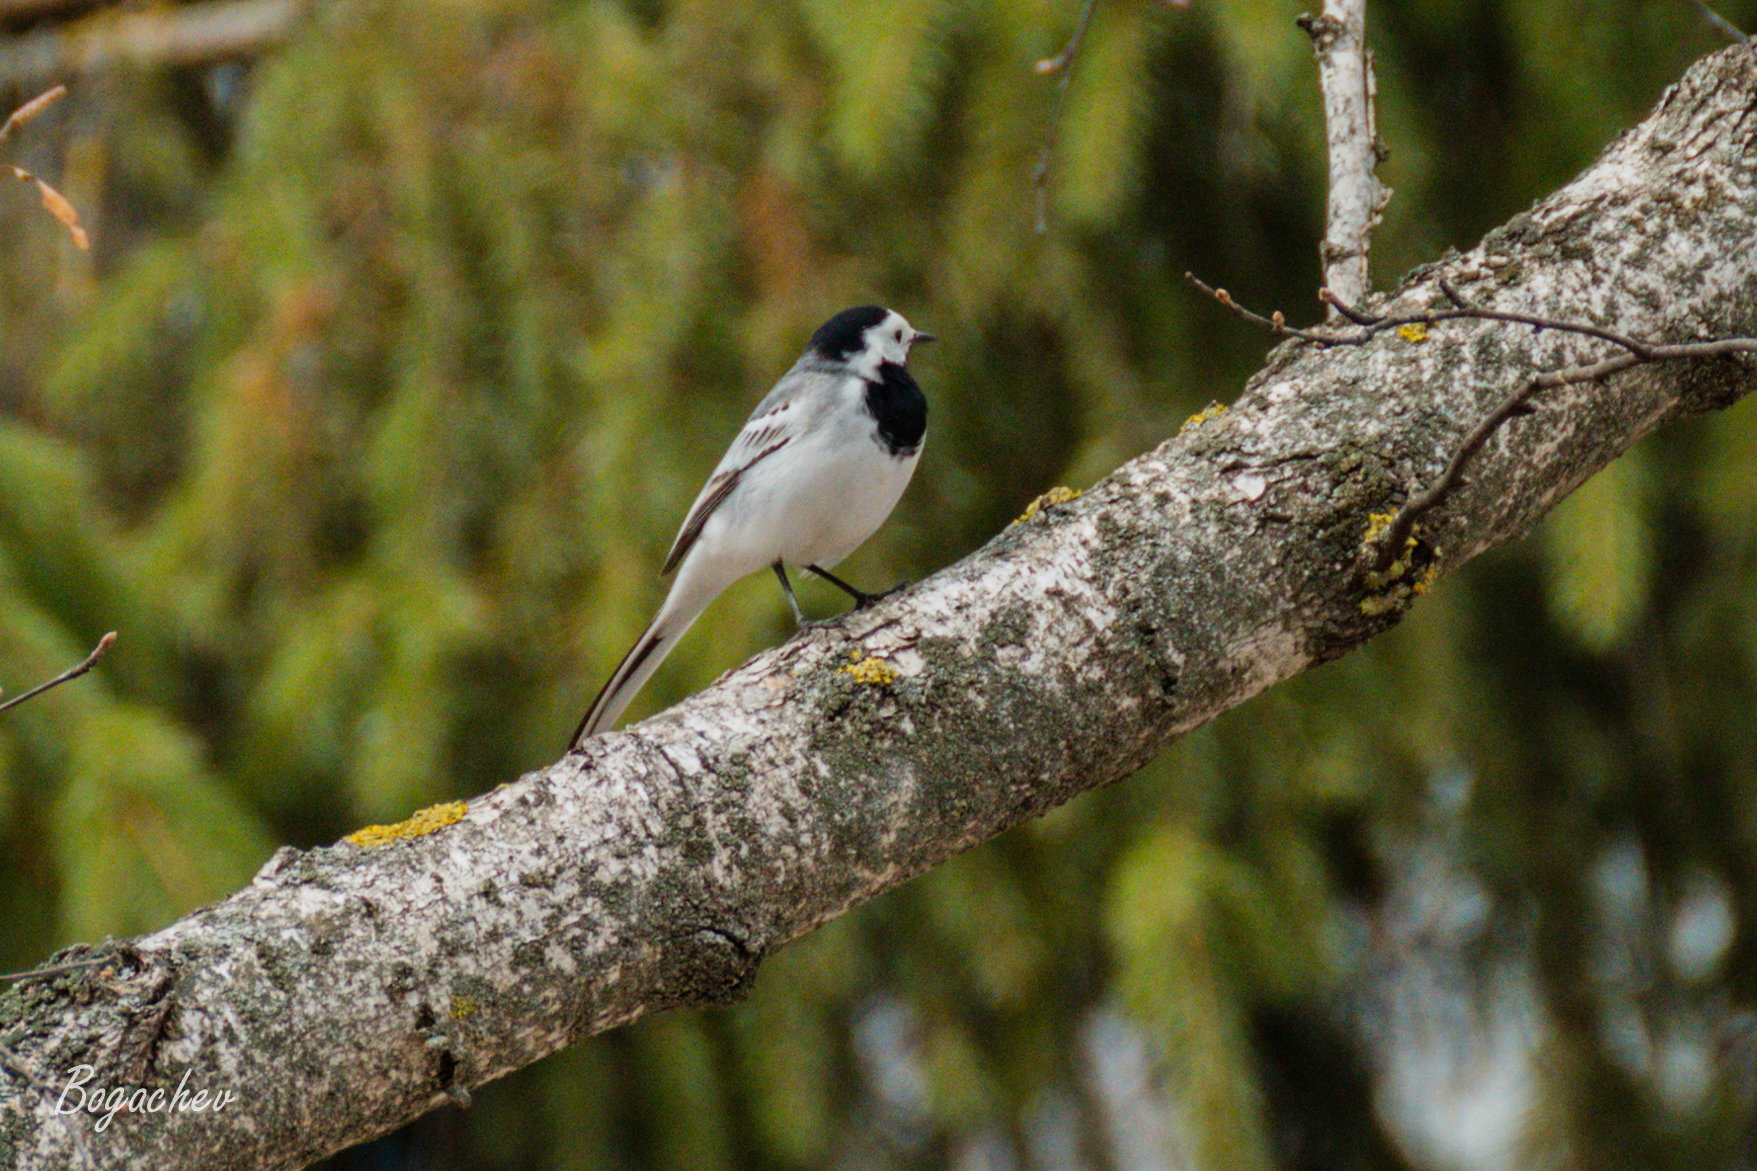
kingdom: Animalia
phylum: Chordata
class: Aves
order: Passeriformes
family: Motacillidae
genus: Motacilla
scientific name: Motacilla alba
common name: White wagtail
